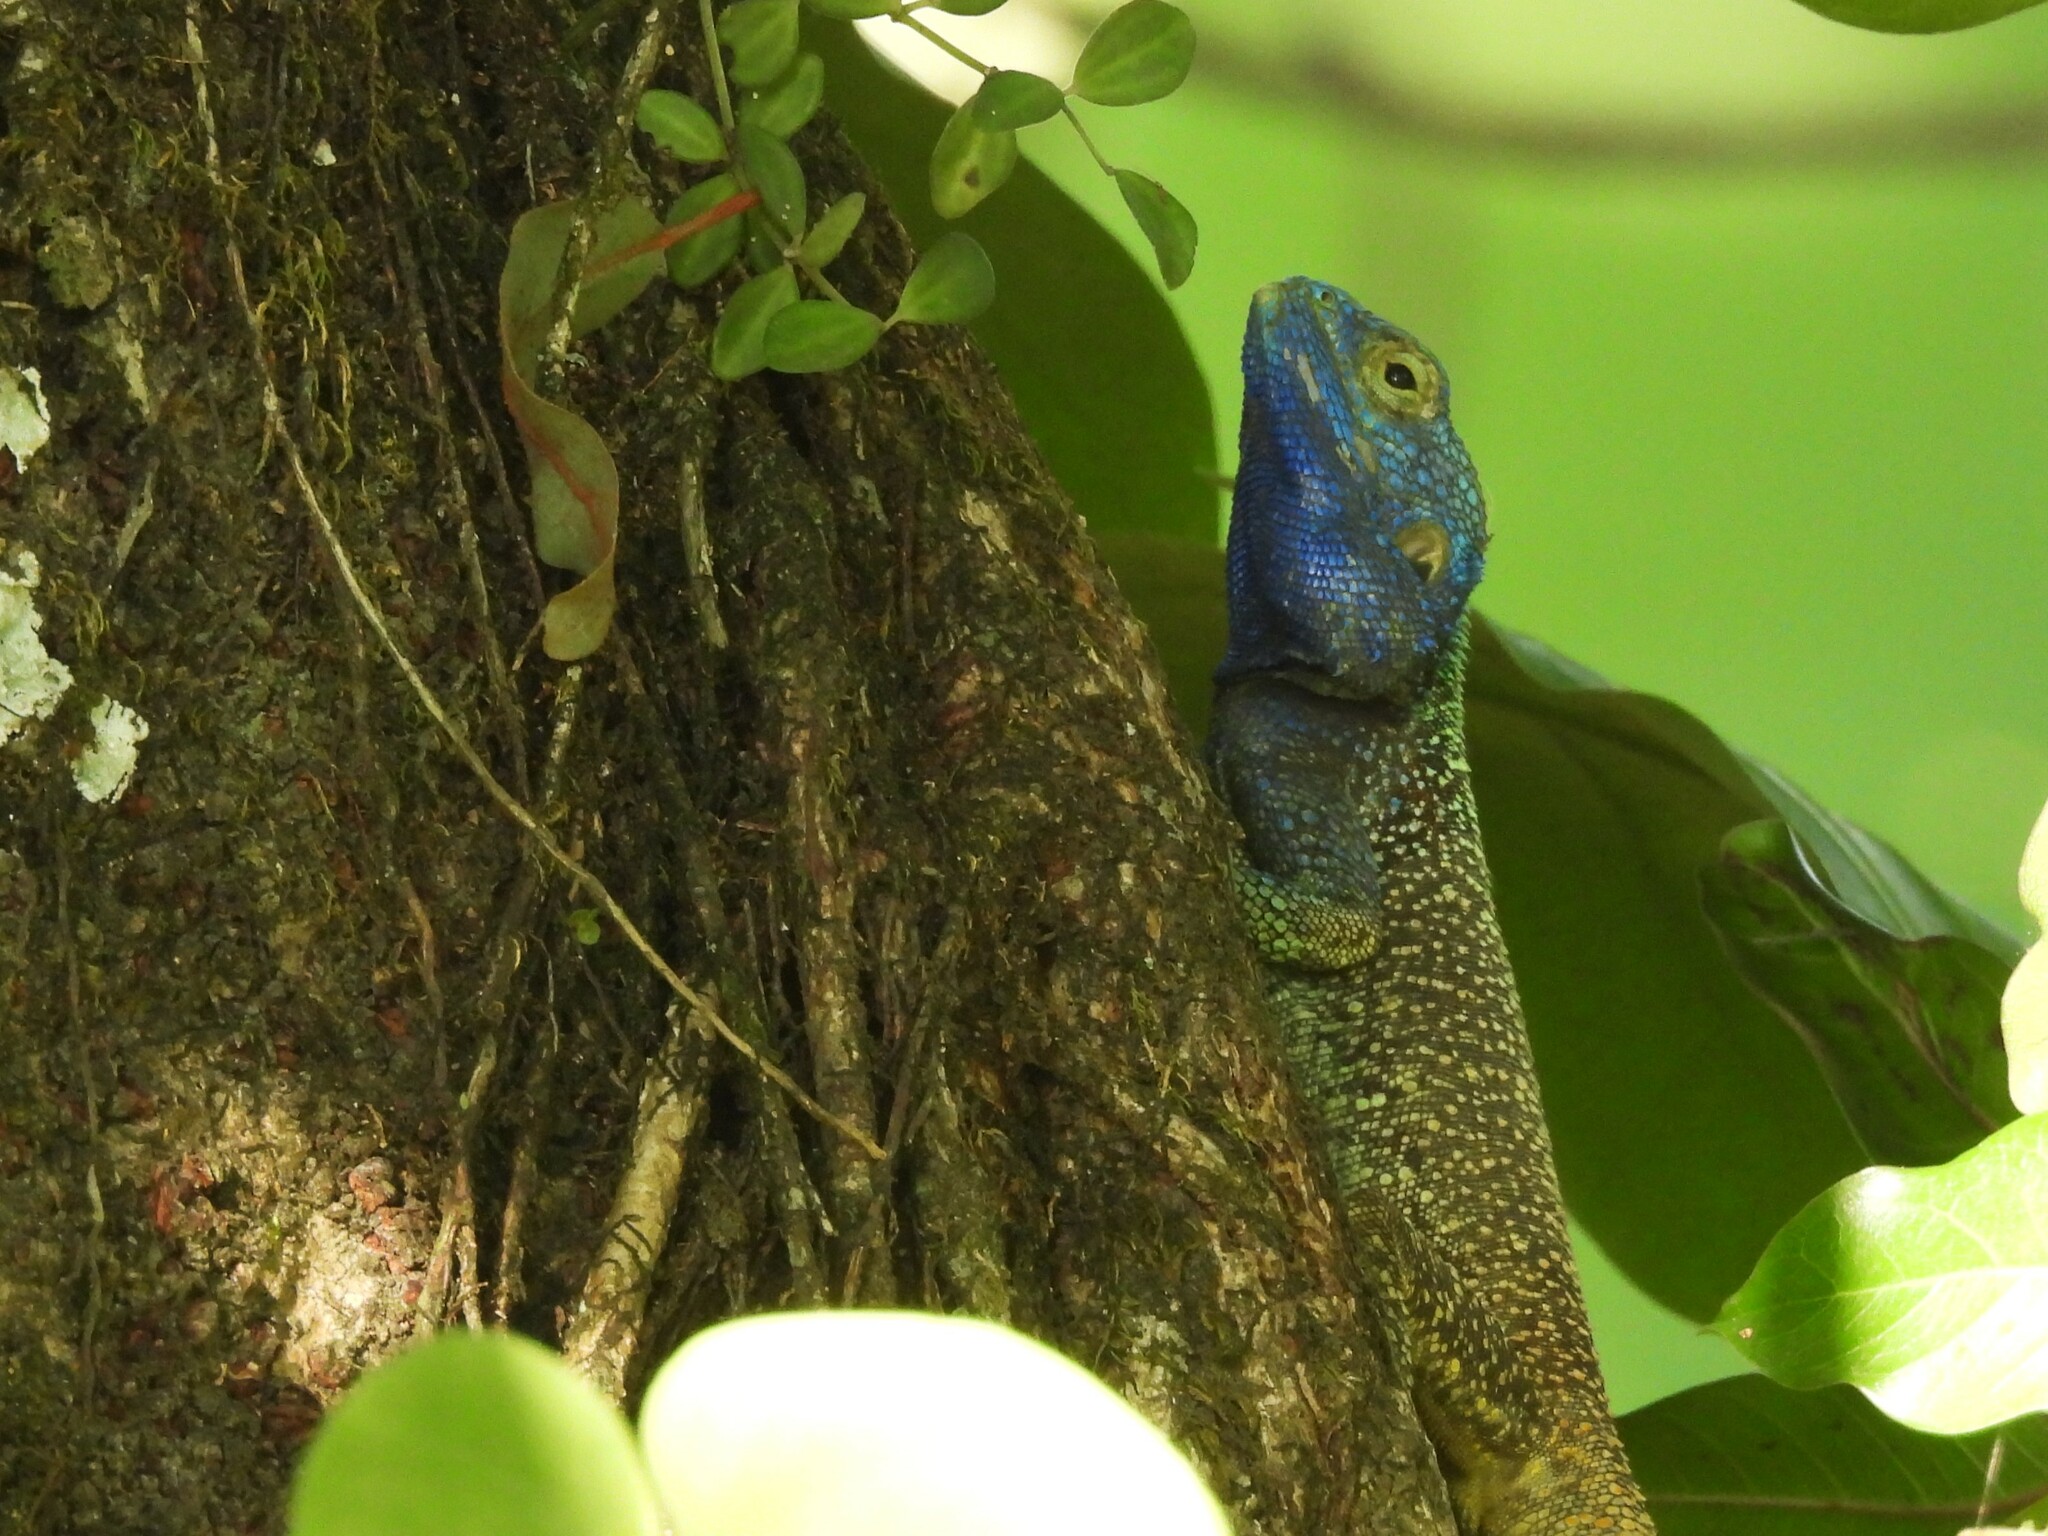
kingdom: Animalia
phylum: Chordata
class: Squamata
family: Agamidae
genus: Acanthocercus
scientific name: Acanthocercus gregorii
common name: Black-necked (ridgeback) agama
